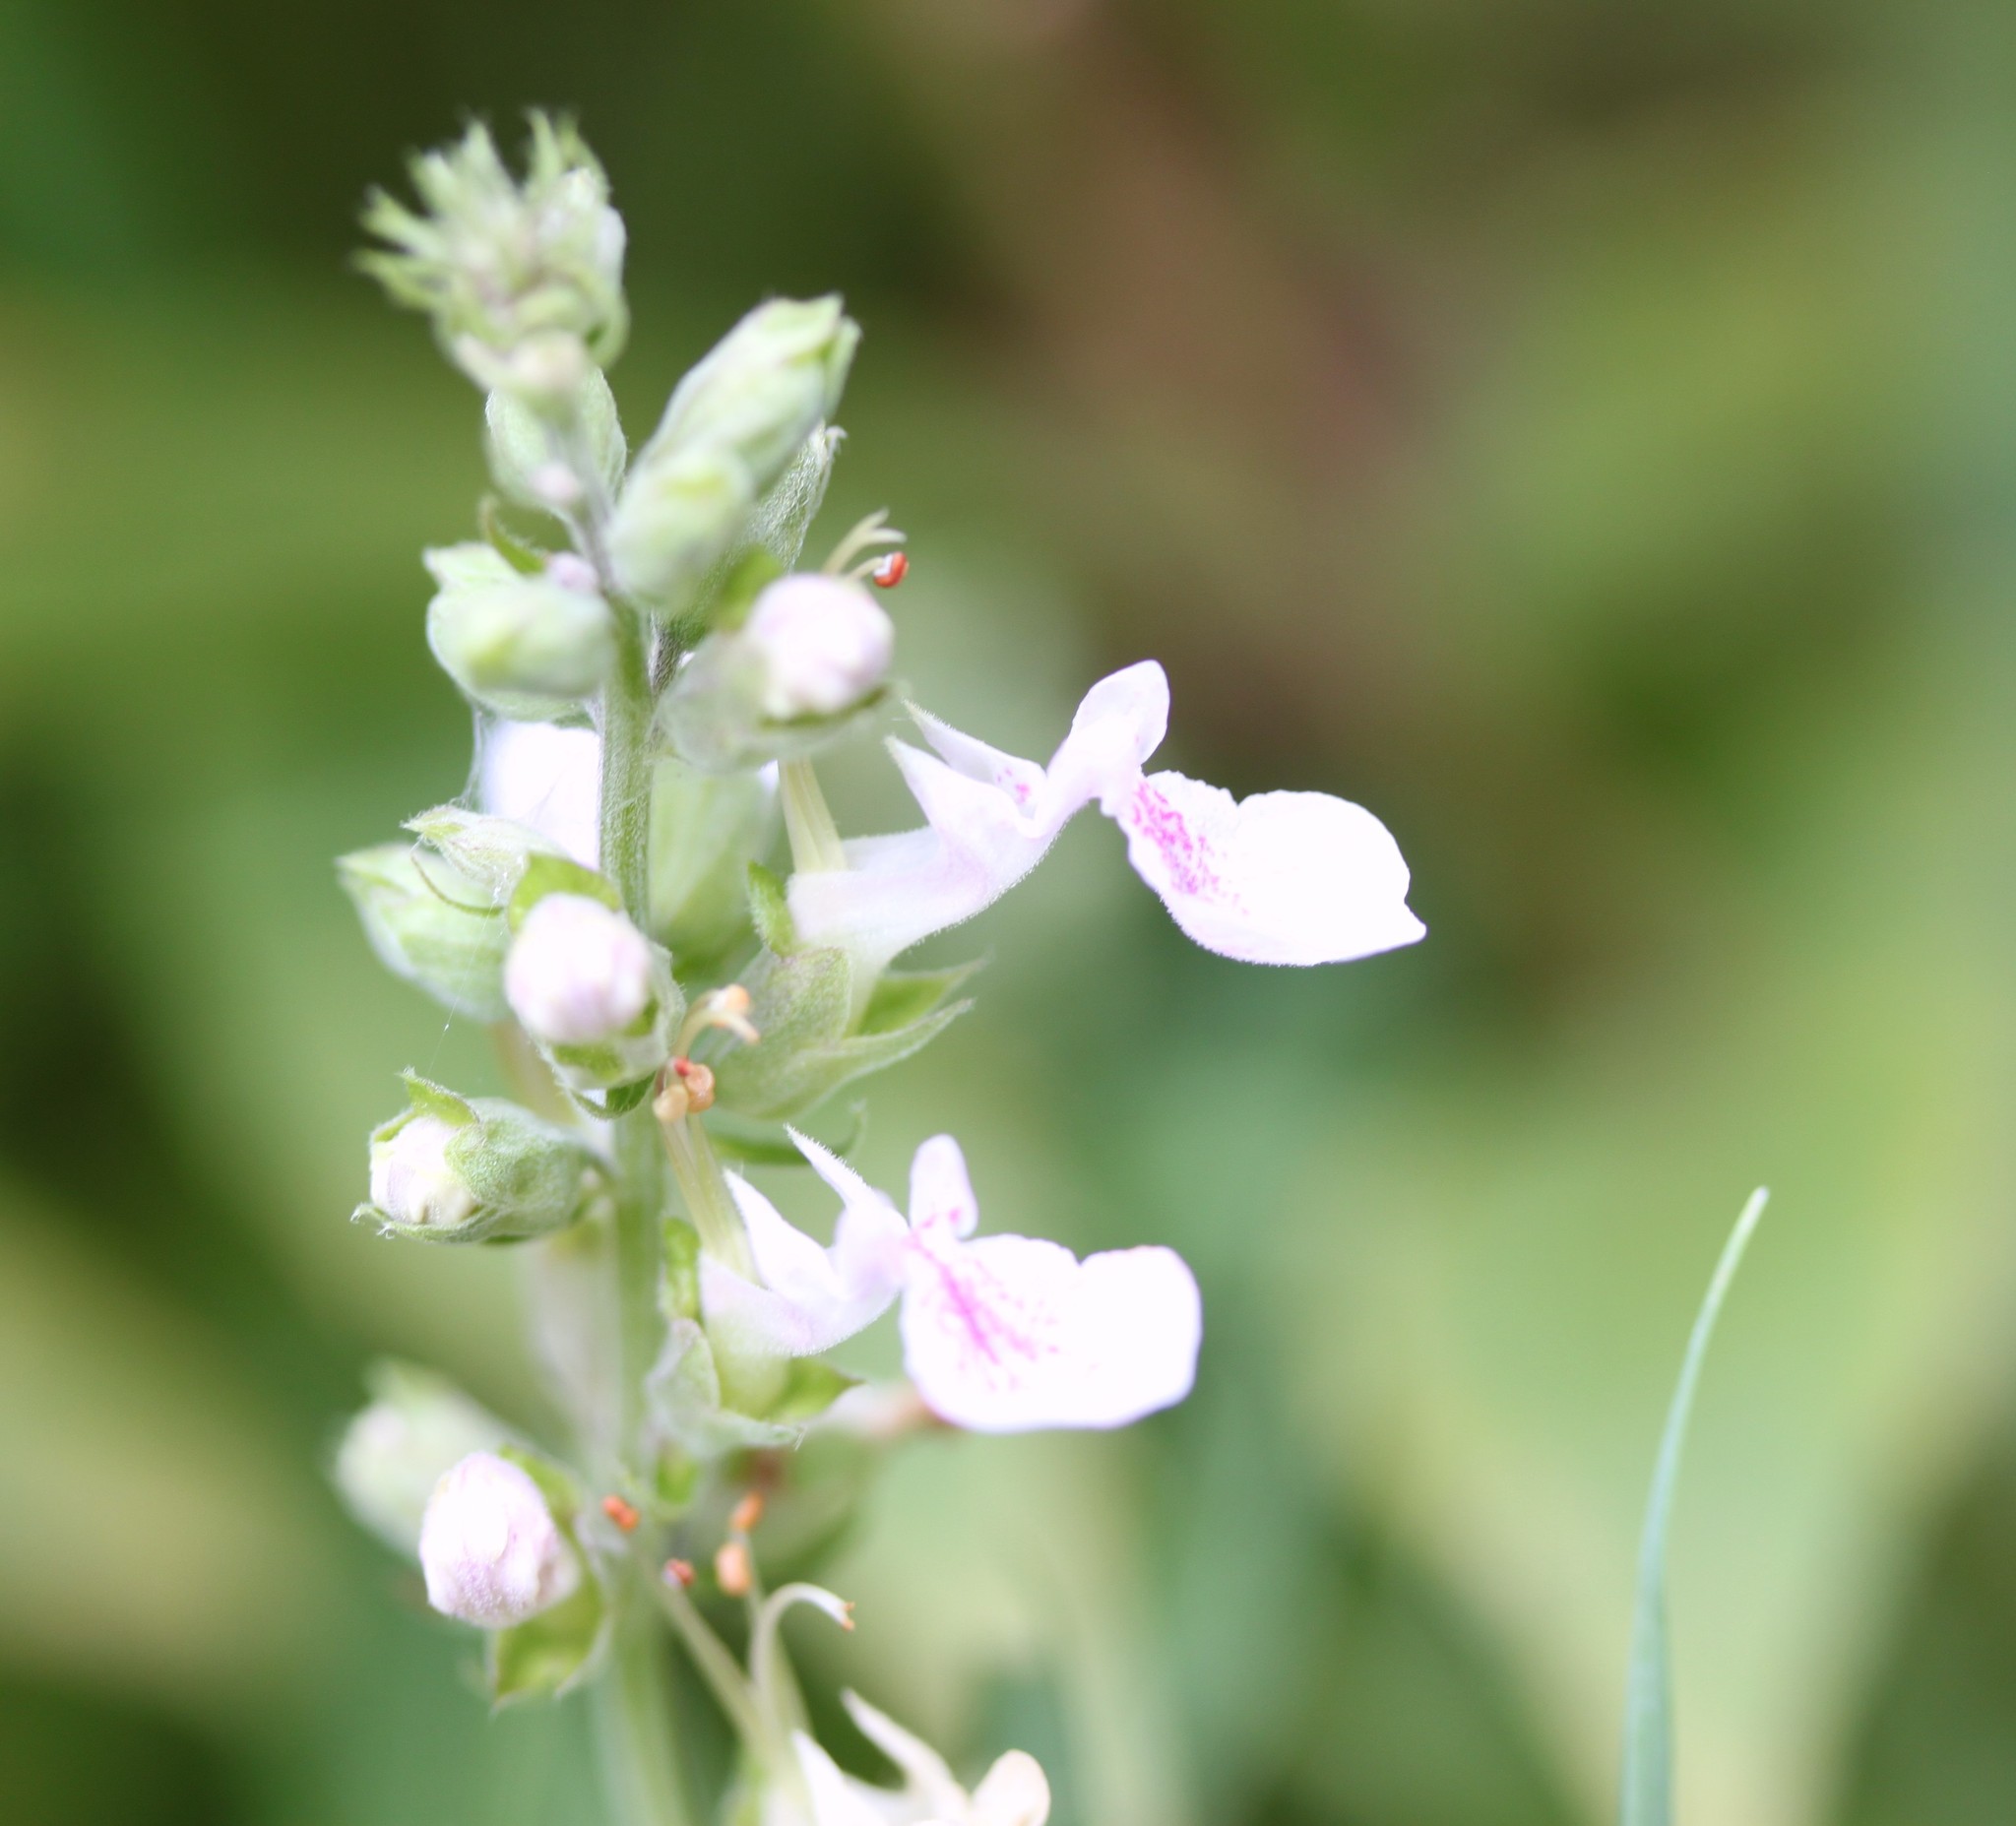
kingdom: Plantae
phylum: Tracheophyta
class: Magnoliopsida
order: Lamiales
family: Lamiaceae
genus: Teucrium
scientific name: Teucrium canadense
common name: American germander
